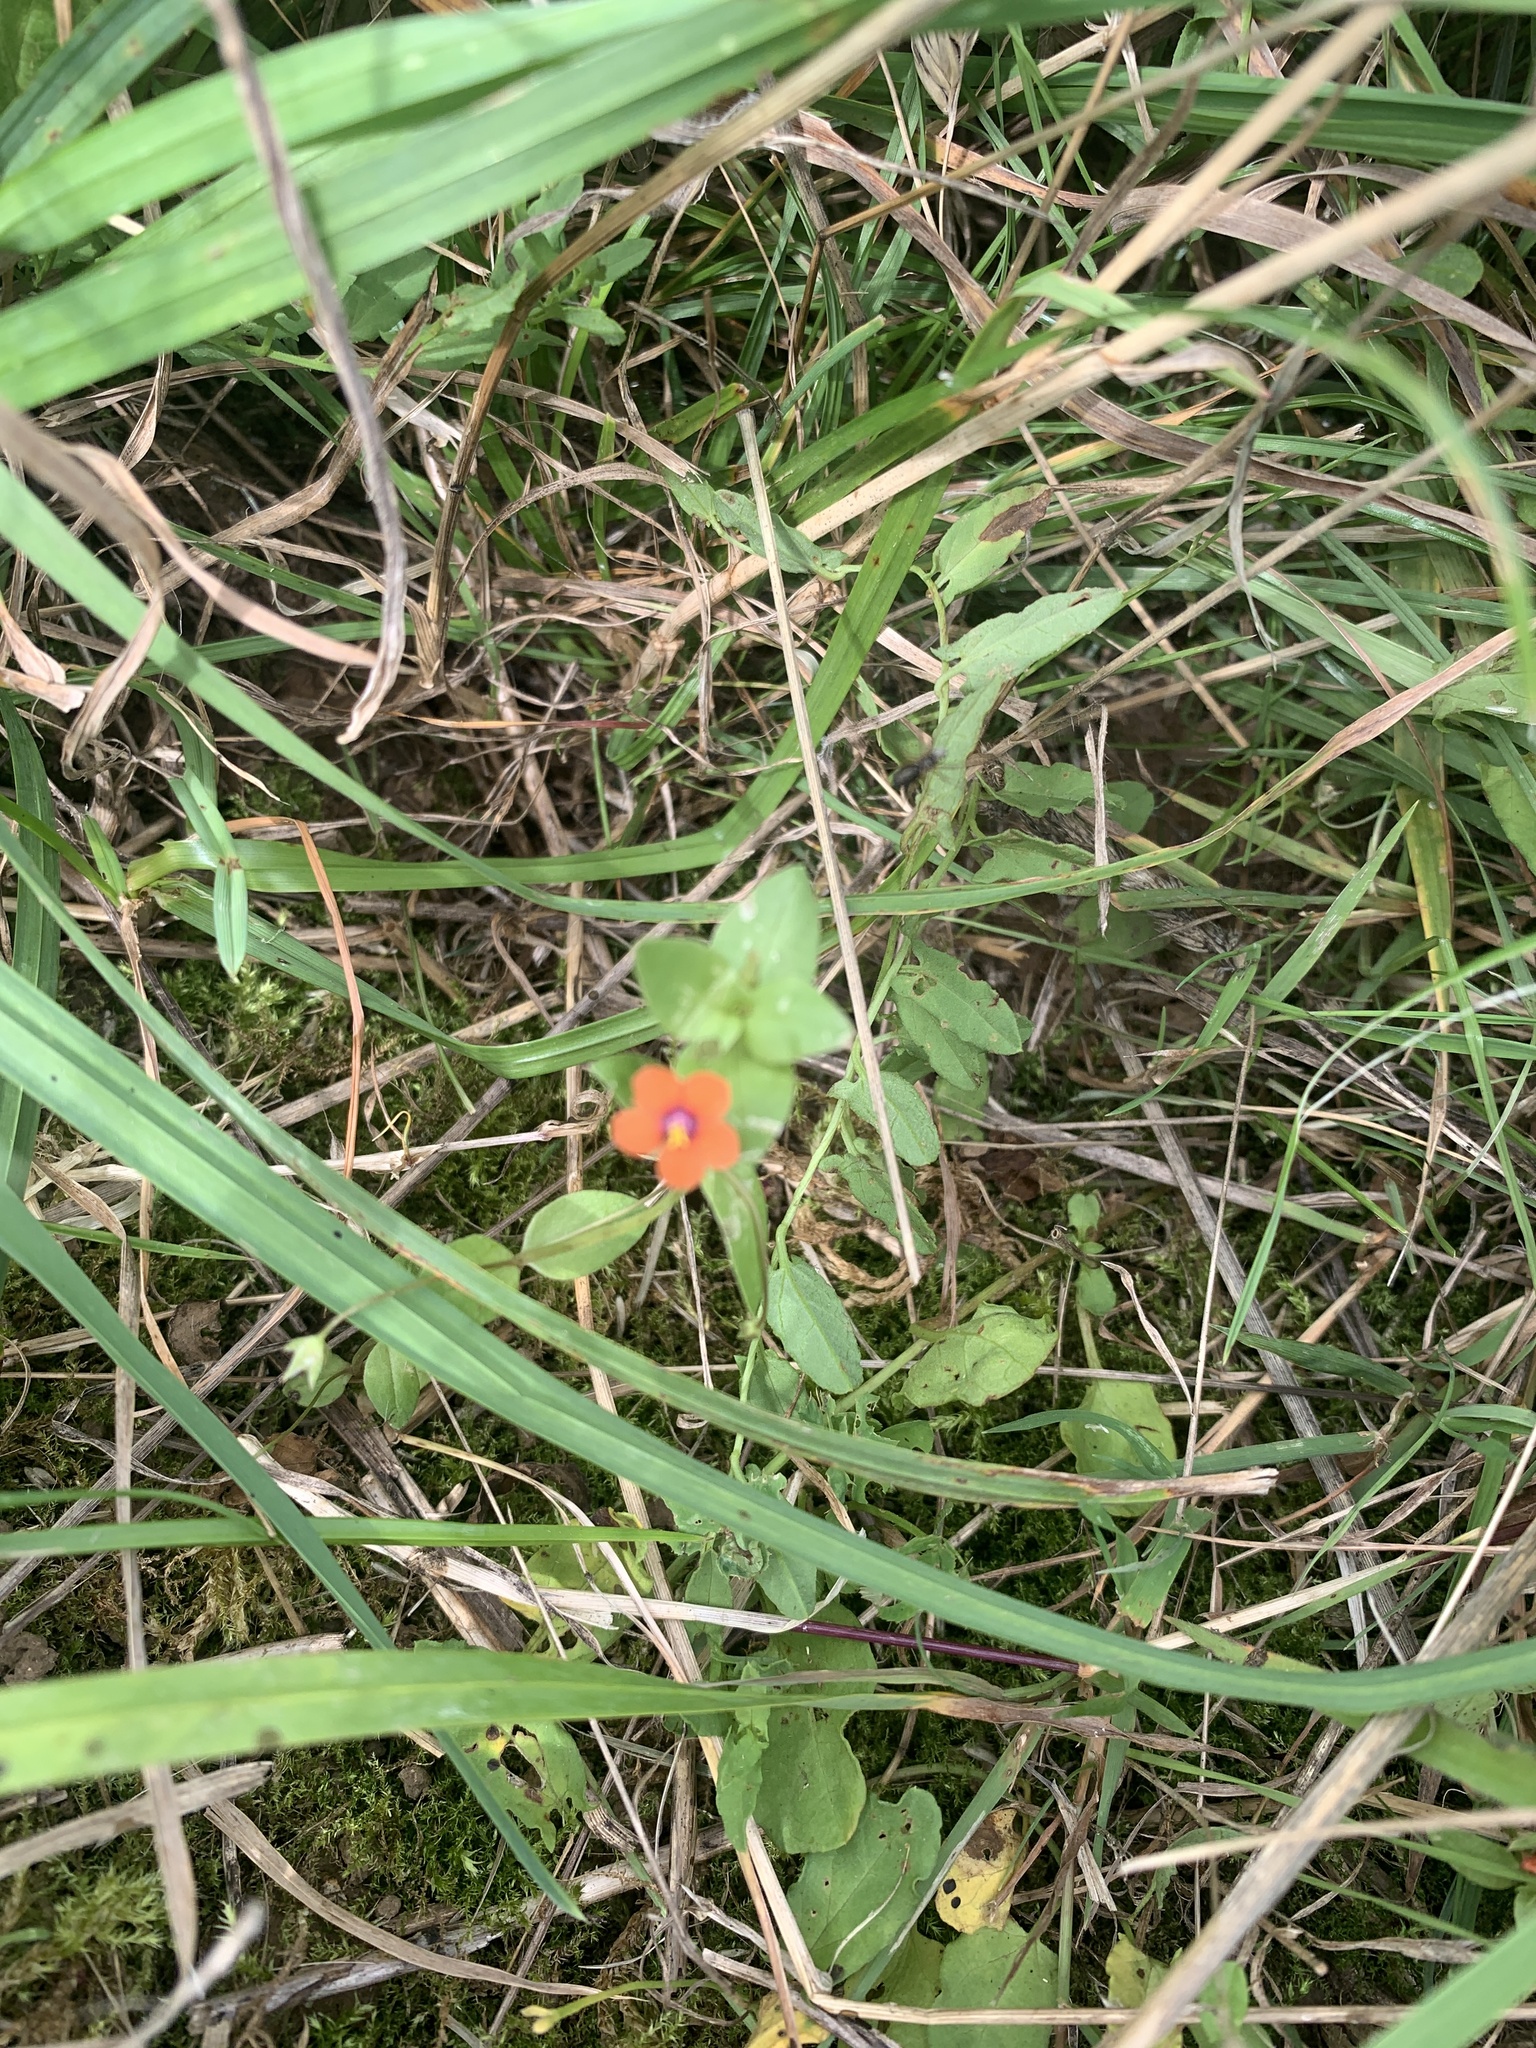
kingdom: Plantae
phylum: Tracheophyta
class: Magnoliopsida
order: Ericales
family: Primulaceae
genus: Lysimachia
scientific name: Lysimachia arvensis
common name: Scarlet pimpernel
